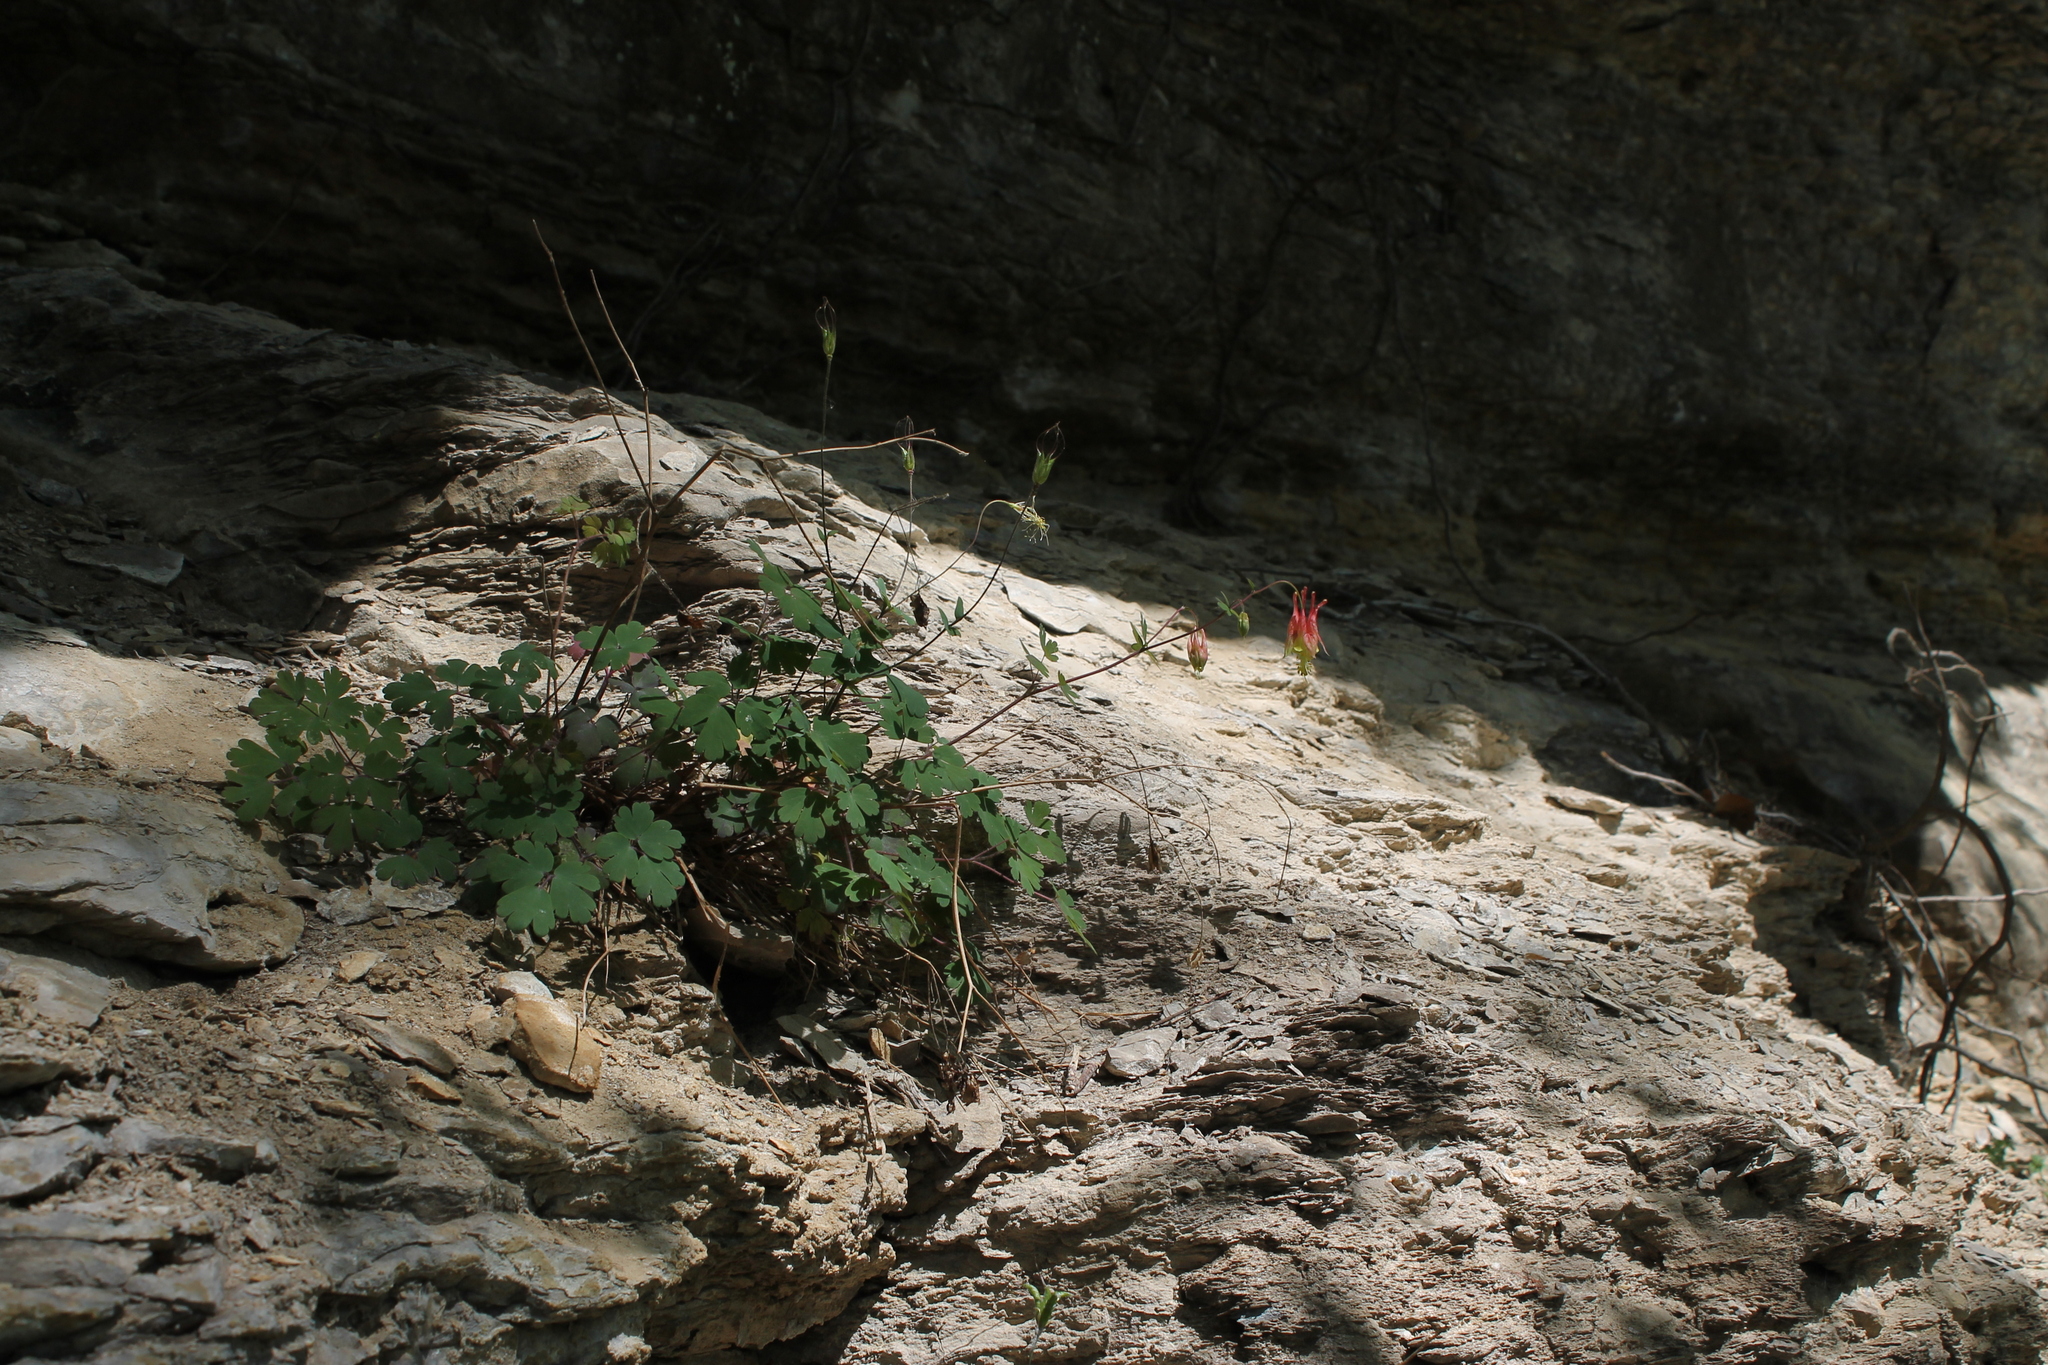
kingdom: Plantae
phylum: Tracheophyta
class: Magnoliopsida
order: Ranunculales
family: Ranunculaceae
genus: Aquilegia
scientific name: Aquilegia canadensis
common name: American columbine
